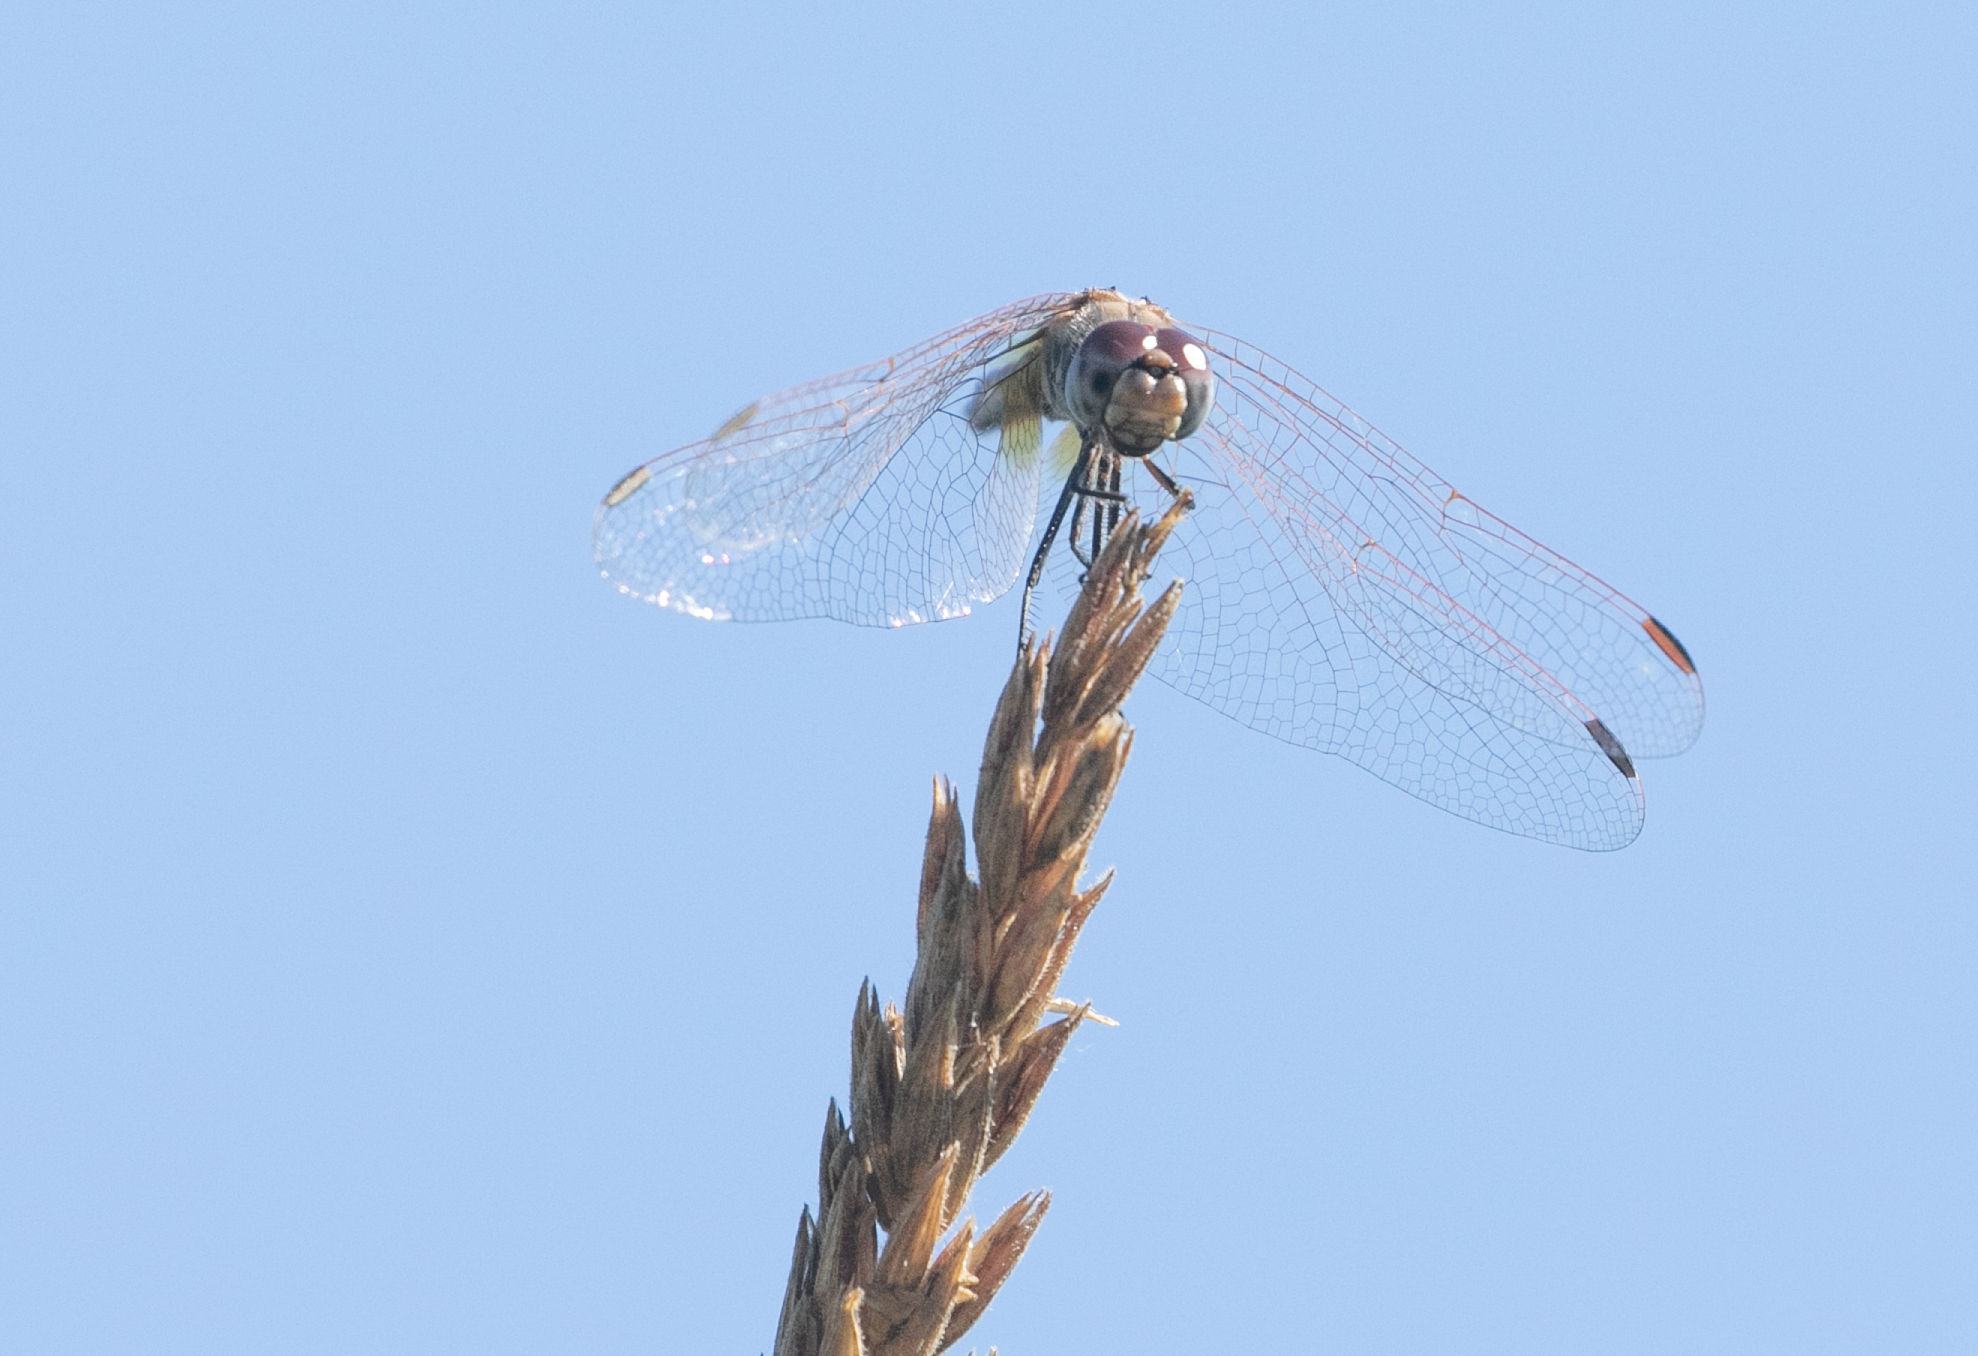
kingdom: Animalia
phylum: Arthropoda
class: Insecta
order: Odonata
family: Libellulidae
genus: Trithemis
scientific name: Trithemis annulata
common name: Violet dropwing
